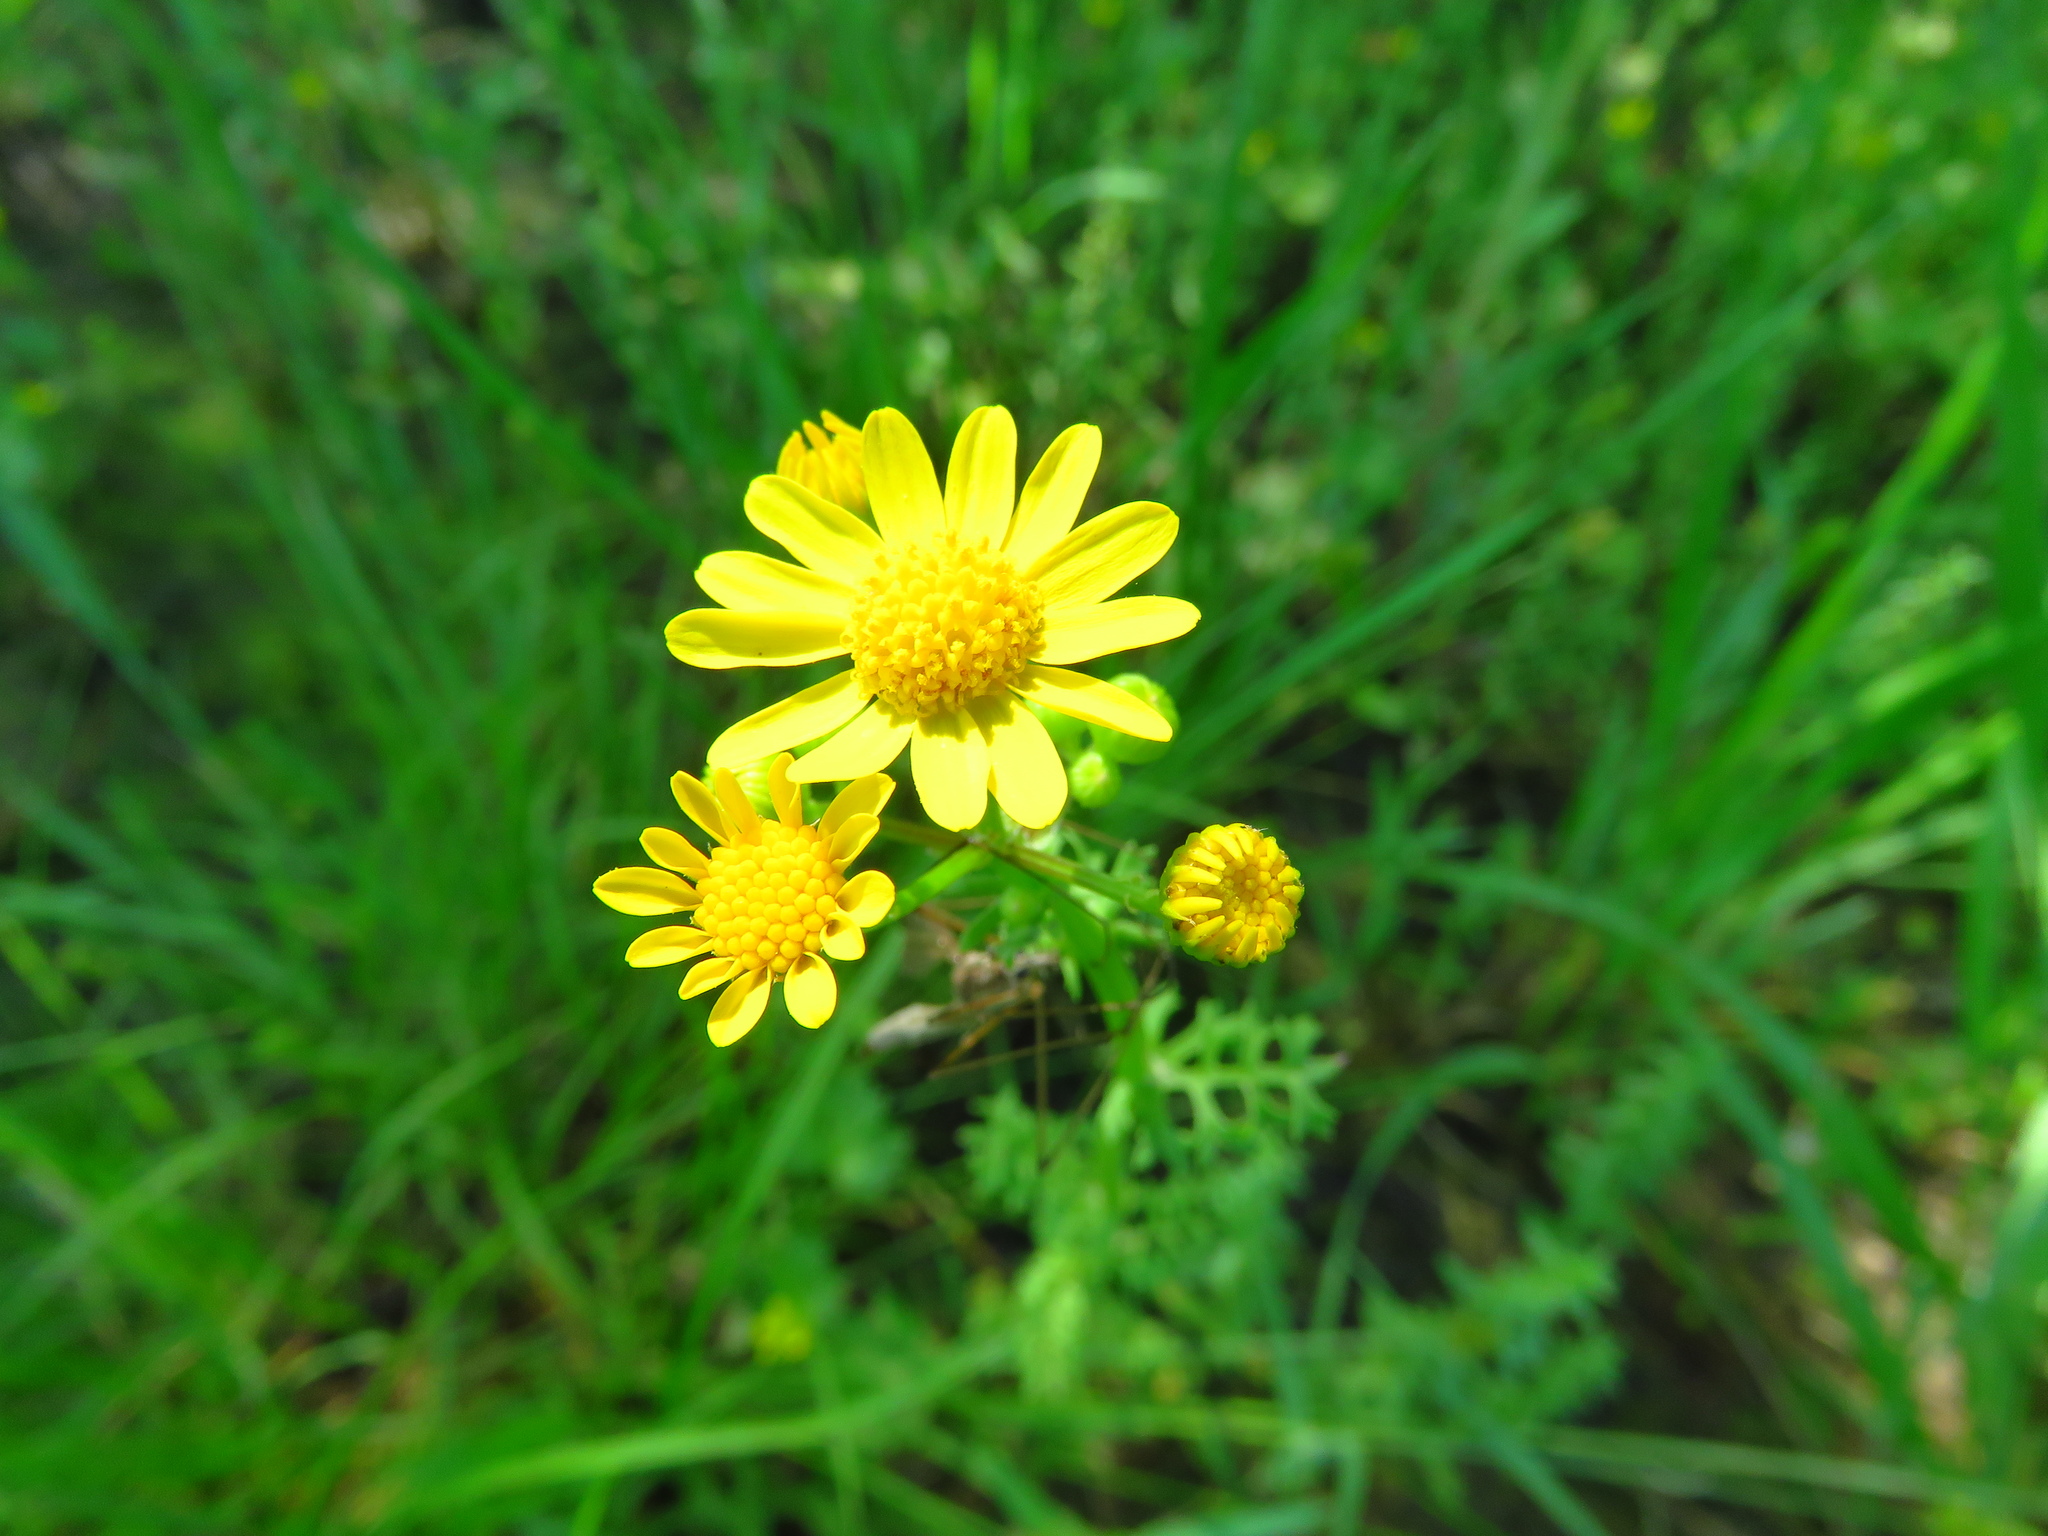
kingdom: Plantae
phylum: Tracheophyta
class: Magnoliopsida
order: Asterales
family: Asteraceae
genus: Packera
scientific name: Packera tampicana
